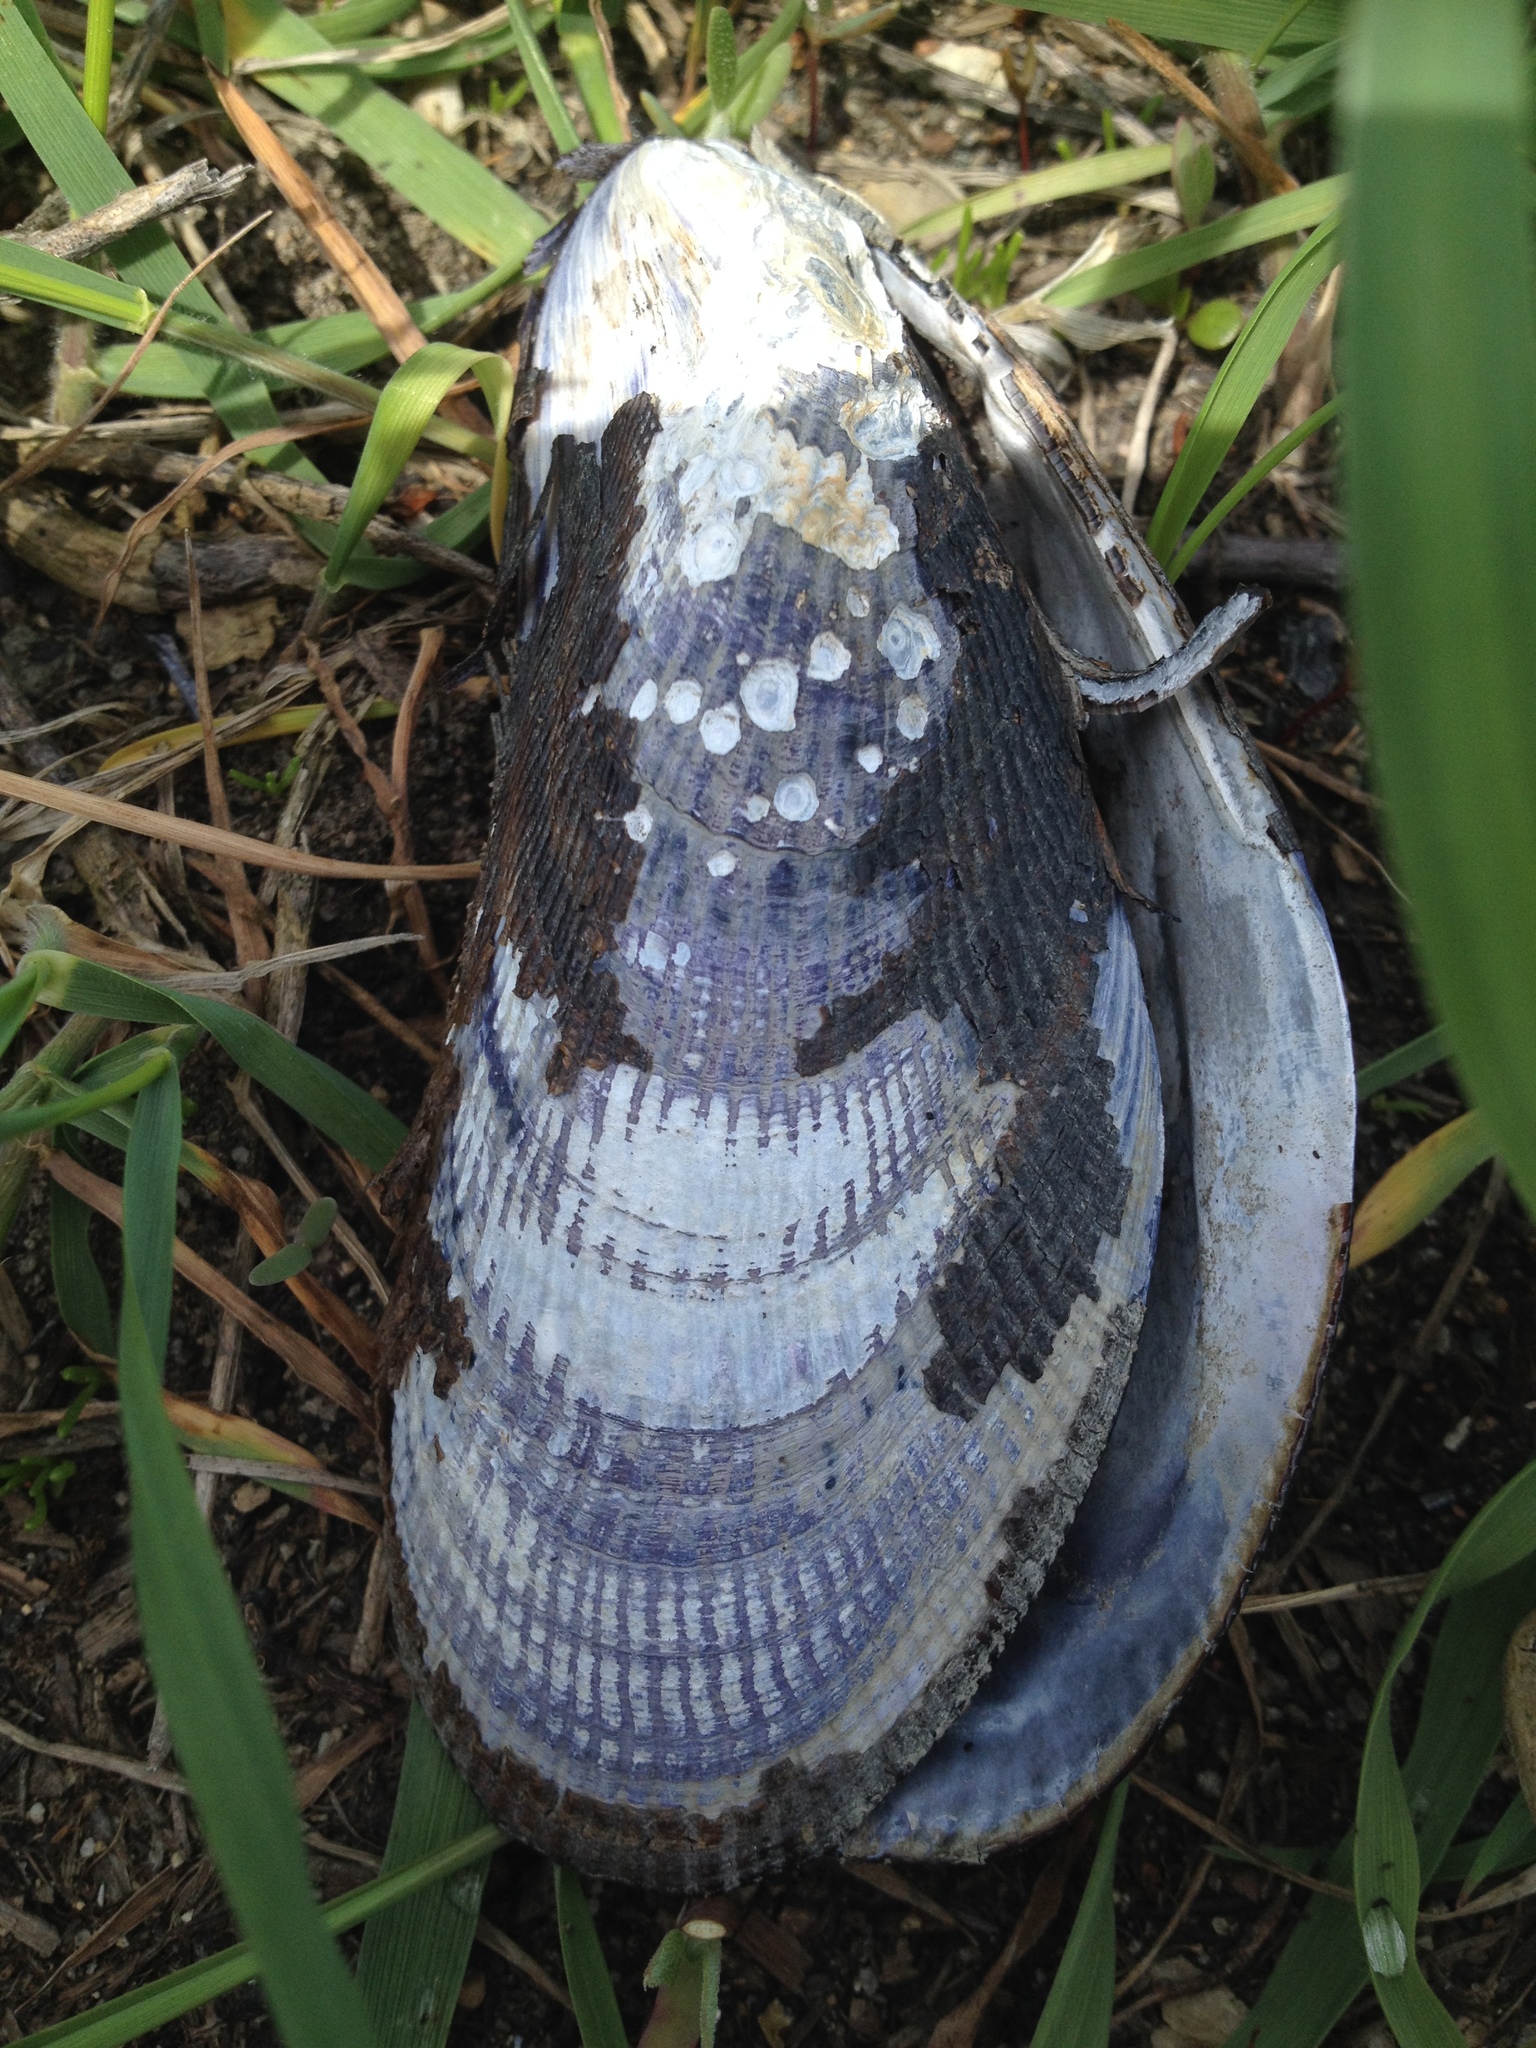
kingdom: Animalia
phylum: Mollusca
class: Bivalvia
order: Mytilida
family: Mytilidae
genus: Geukensia
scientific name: Geukensia demissa
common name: Ribbed mussel
